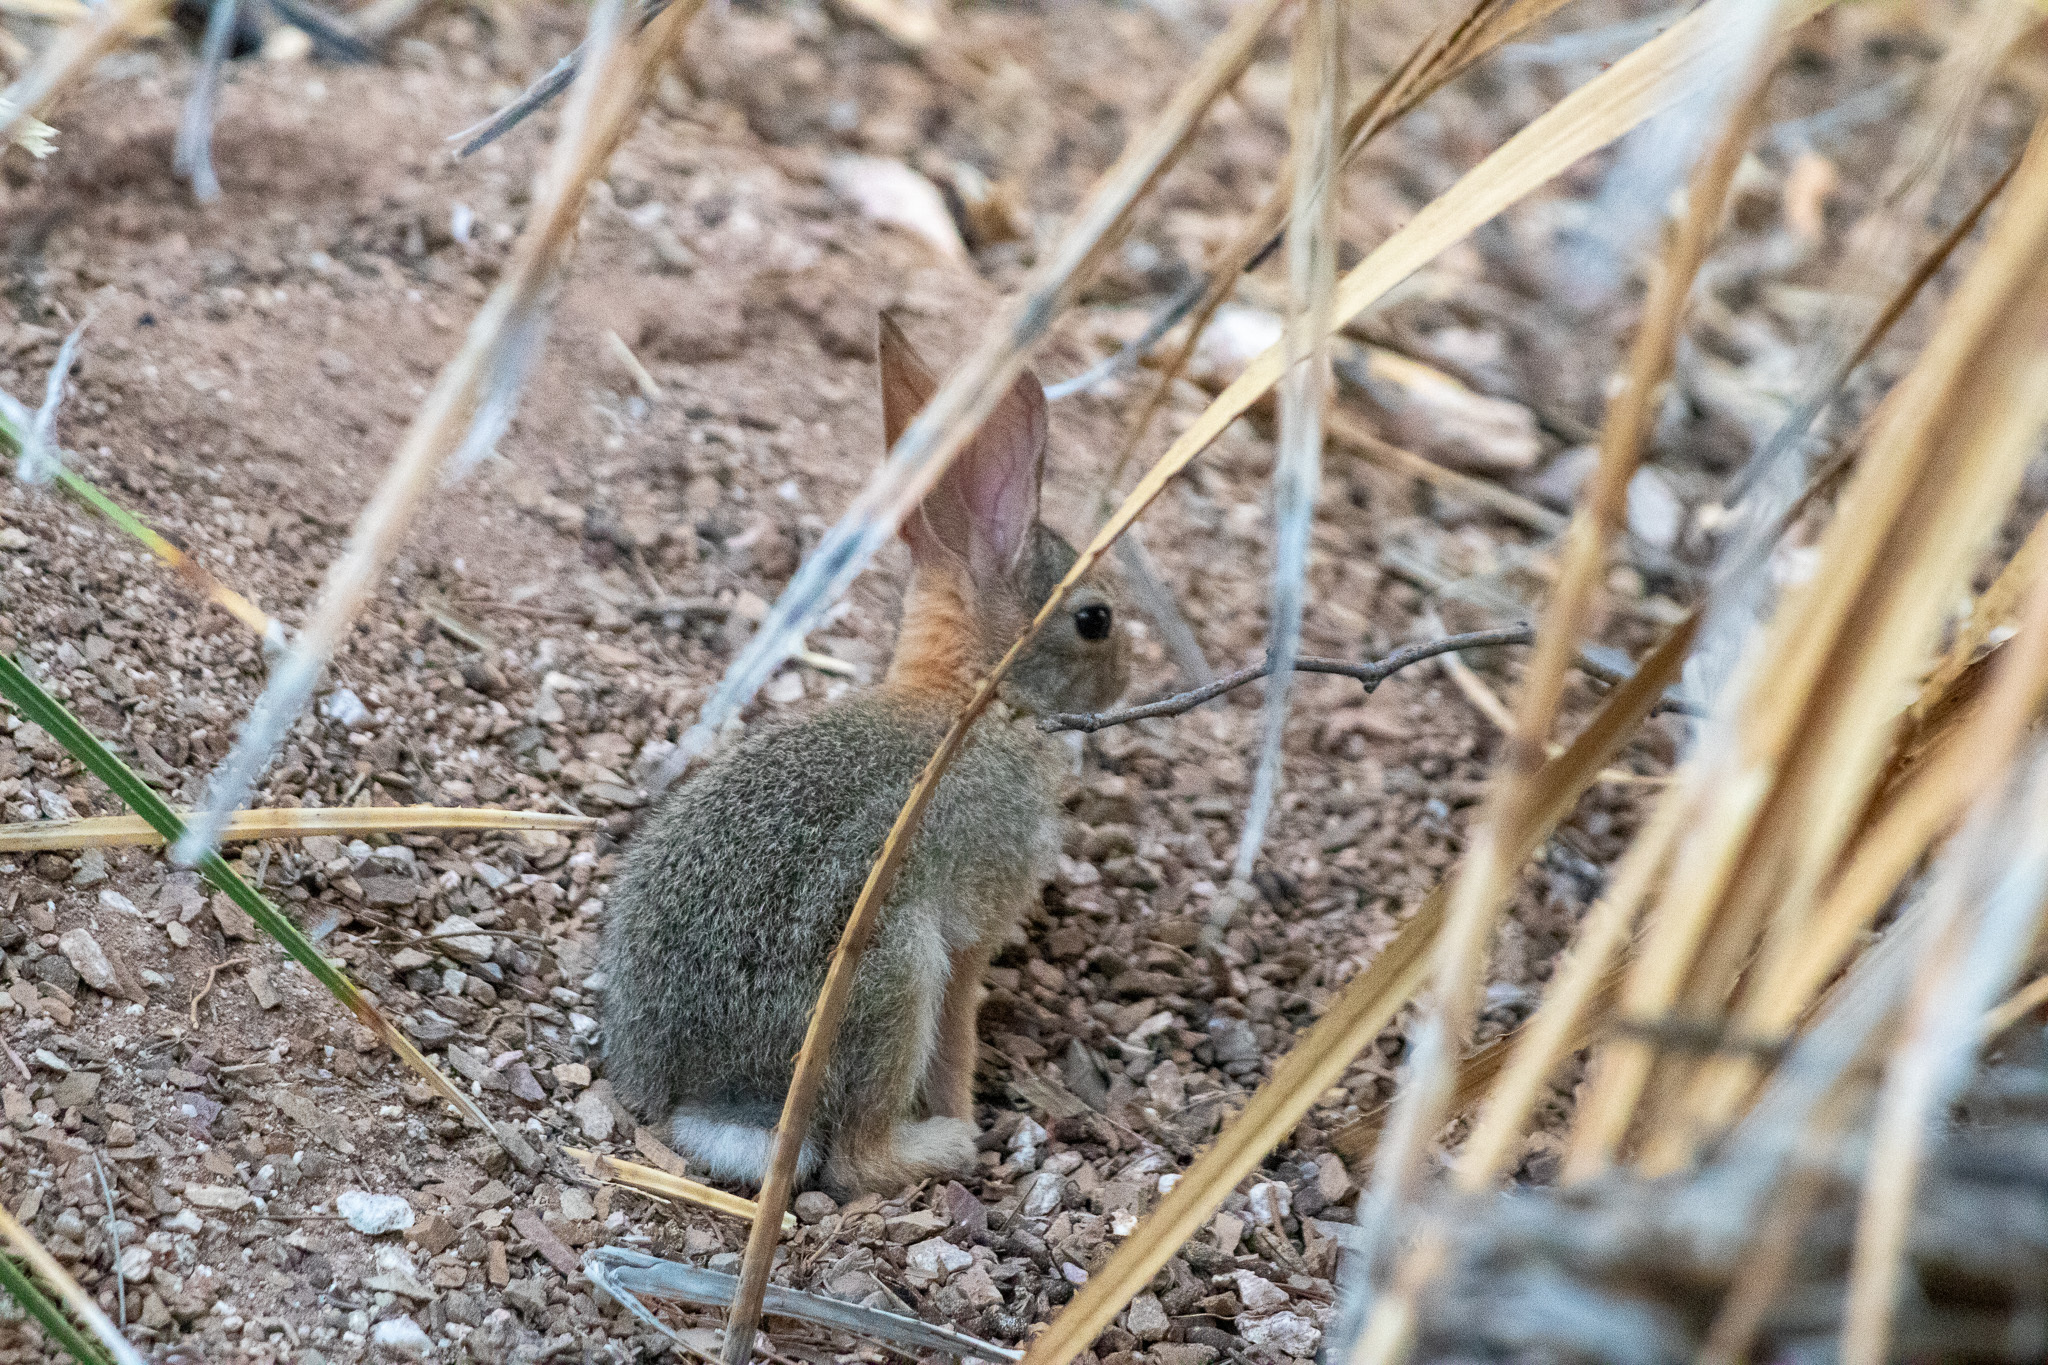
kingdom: Animalia
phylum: Chordata
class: Mammalia
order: Lagomorpha
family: Leporidae
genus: Sylvilagus
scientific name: Sylvilagus audubonii
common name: Desert cottontail
